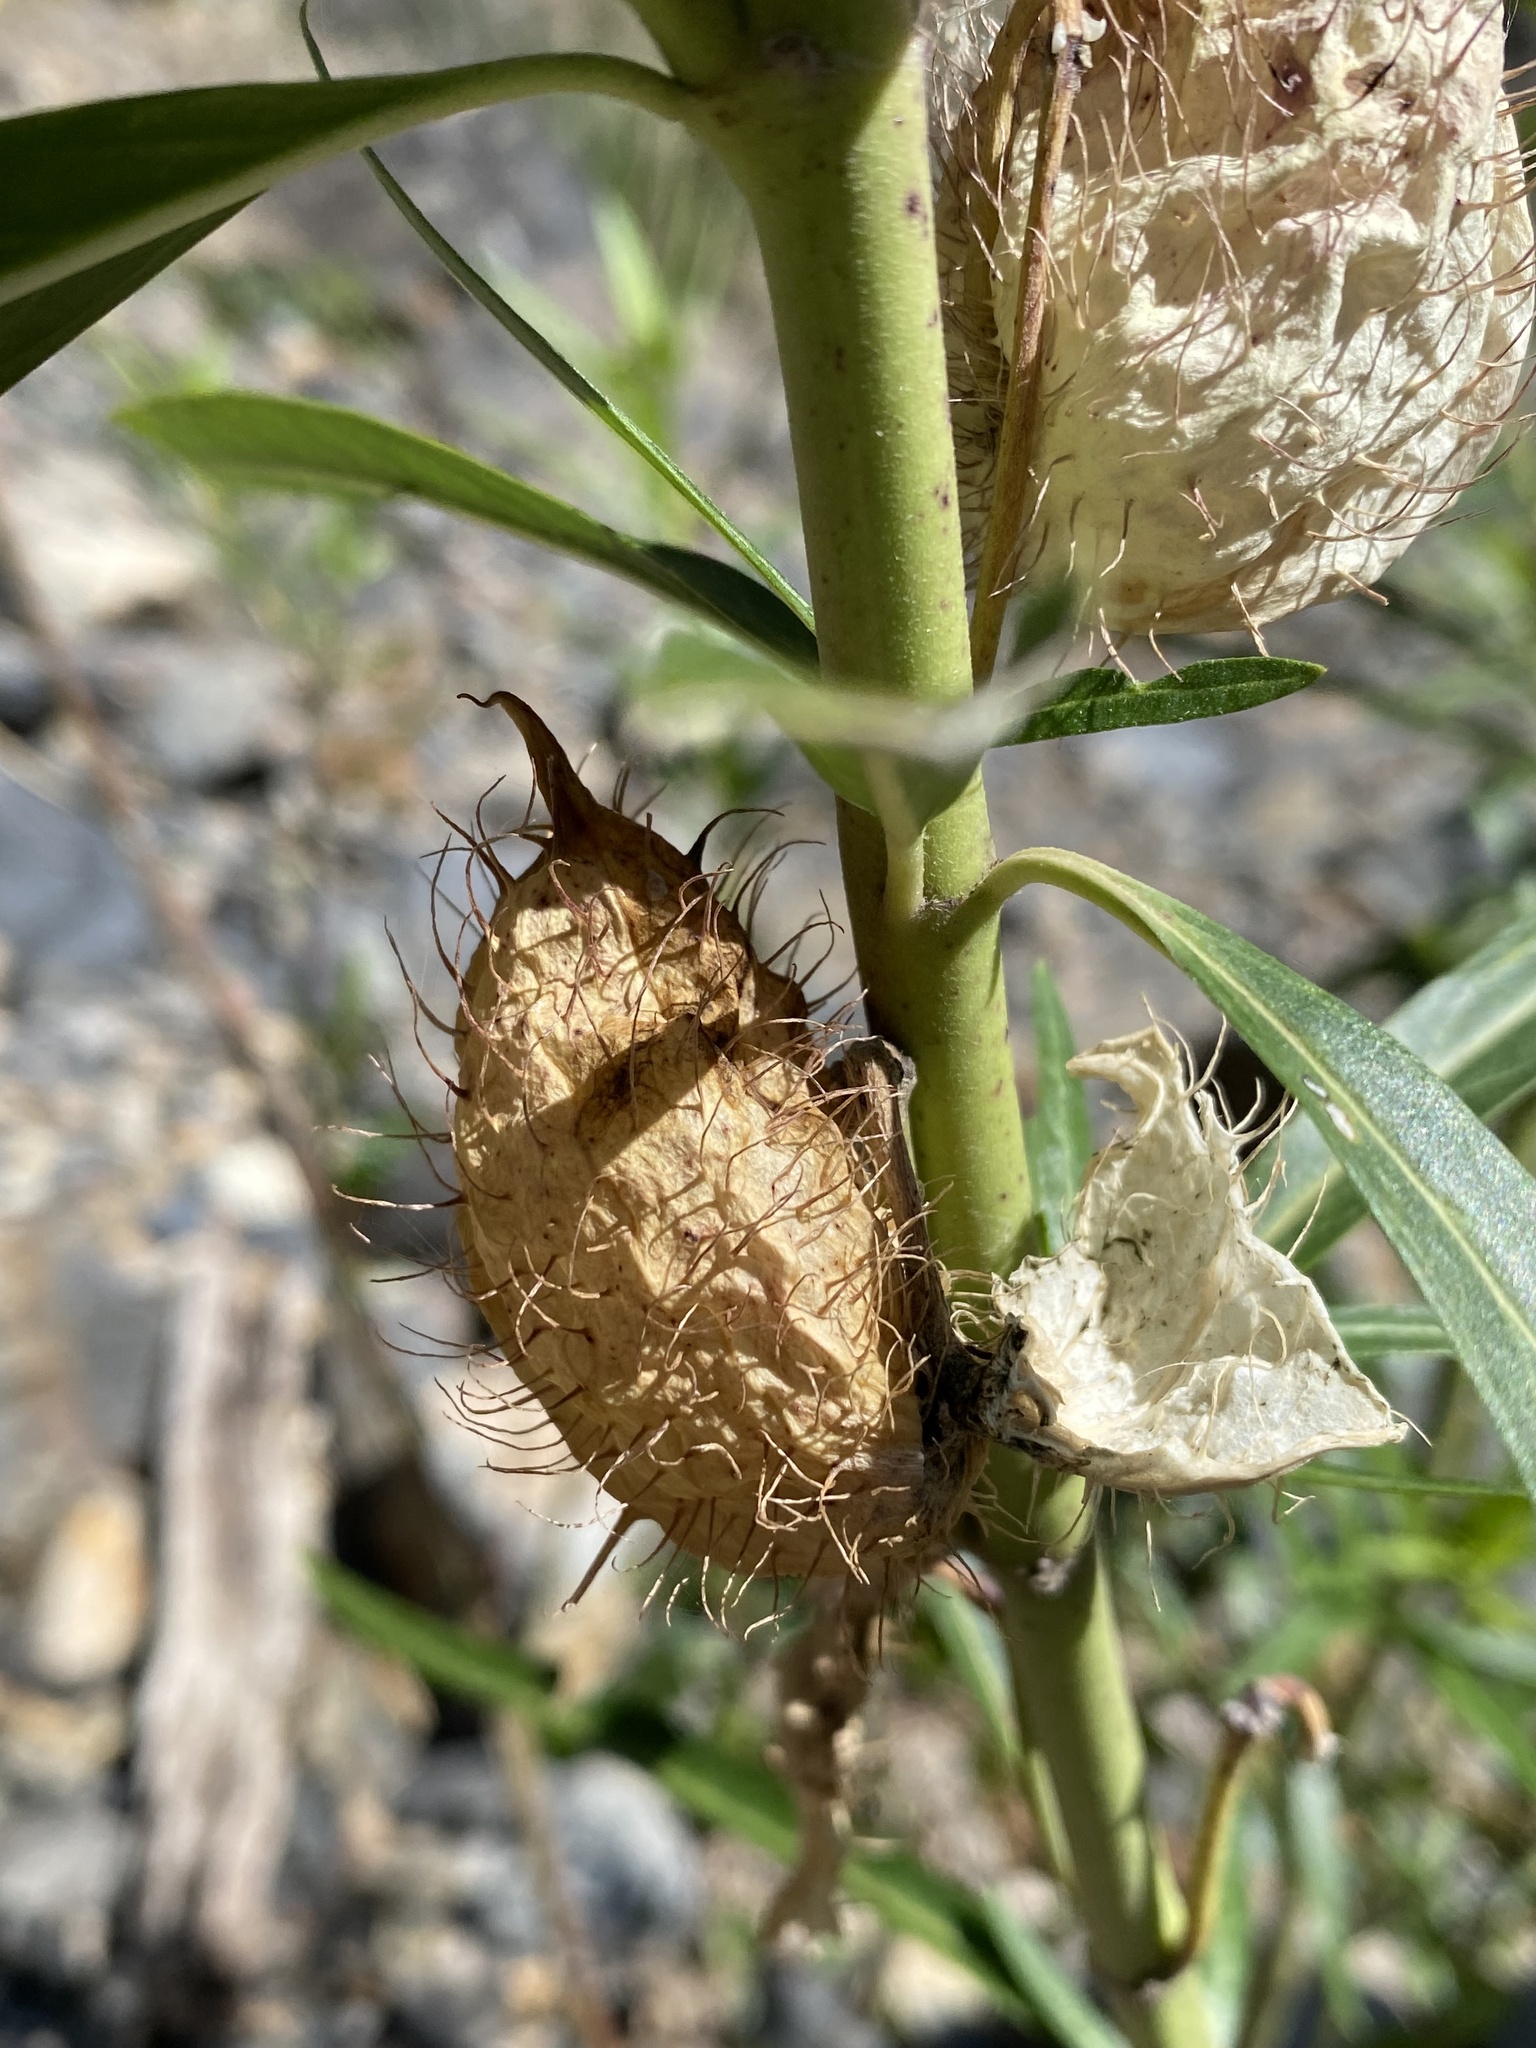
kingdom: Plantae
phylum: Tracheophyta
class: Magnoliopsida
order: Gentianales
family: Apocynaceae
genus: Gomphocarpus
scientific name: Gomphocarpus fruticosus
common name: Milkweed
